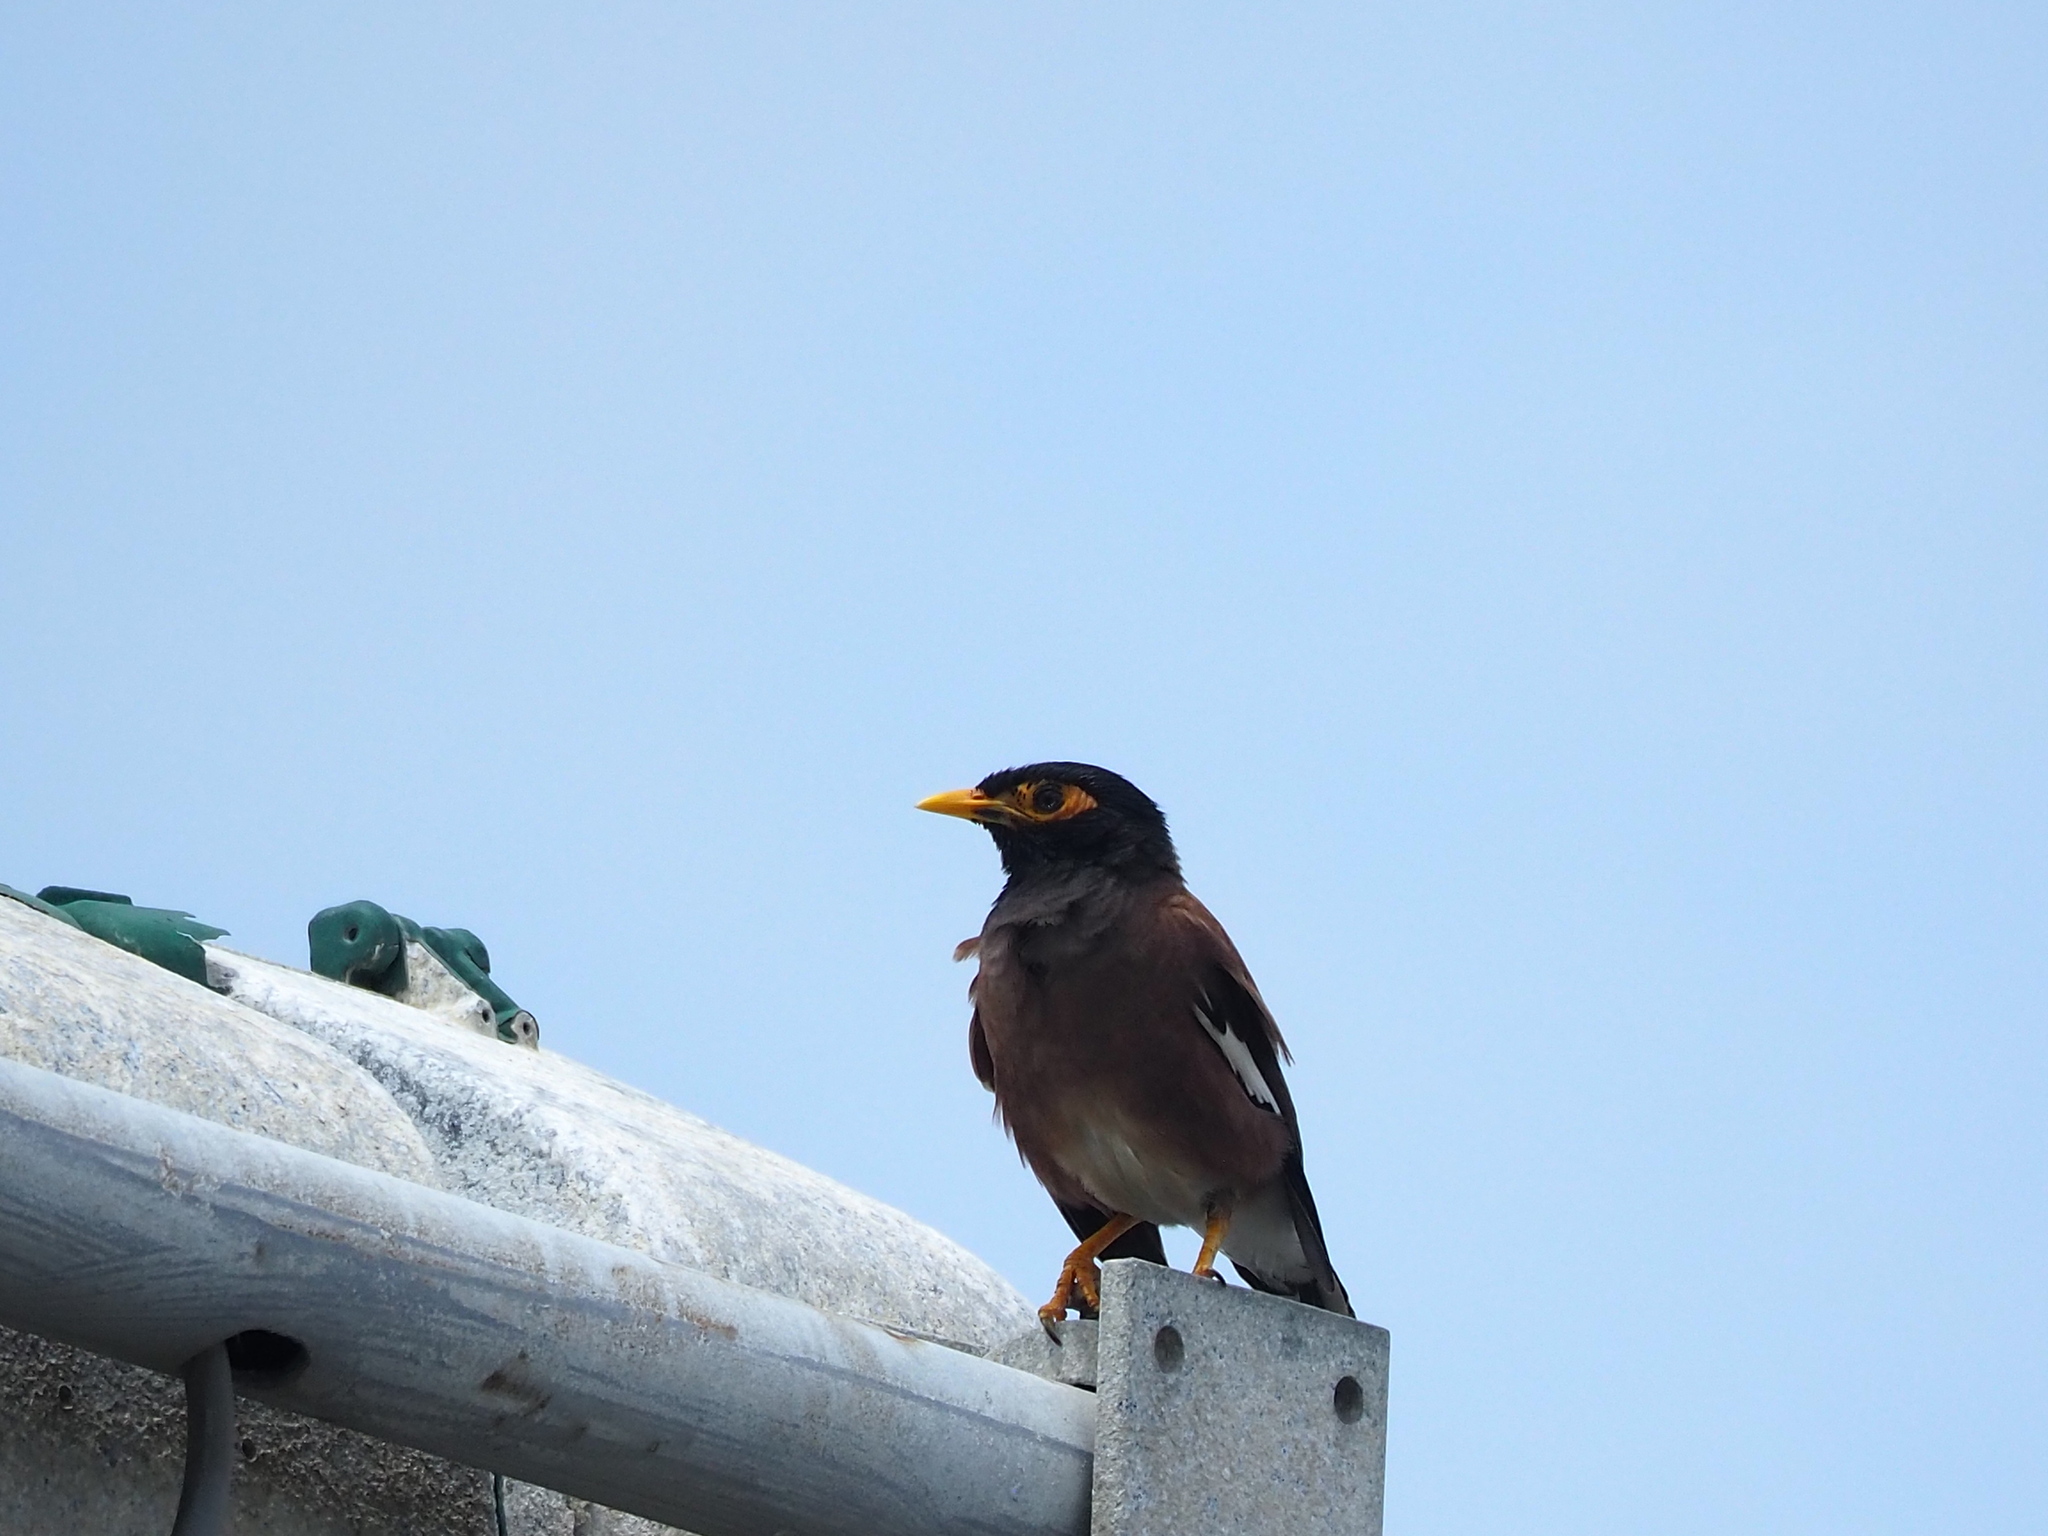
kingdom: Animalia
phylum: Chordata
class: Aves
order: Passeriformes
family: Sturnidae
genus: Acridotheres
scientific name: Acridotheres tristis
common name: Common myna
